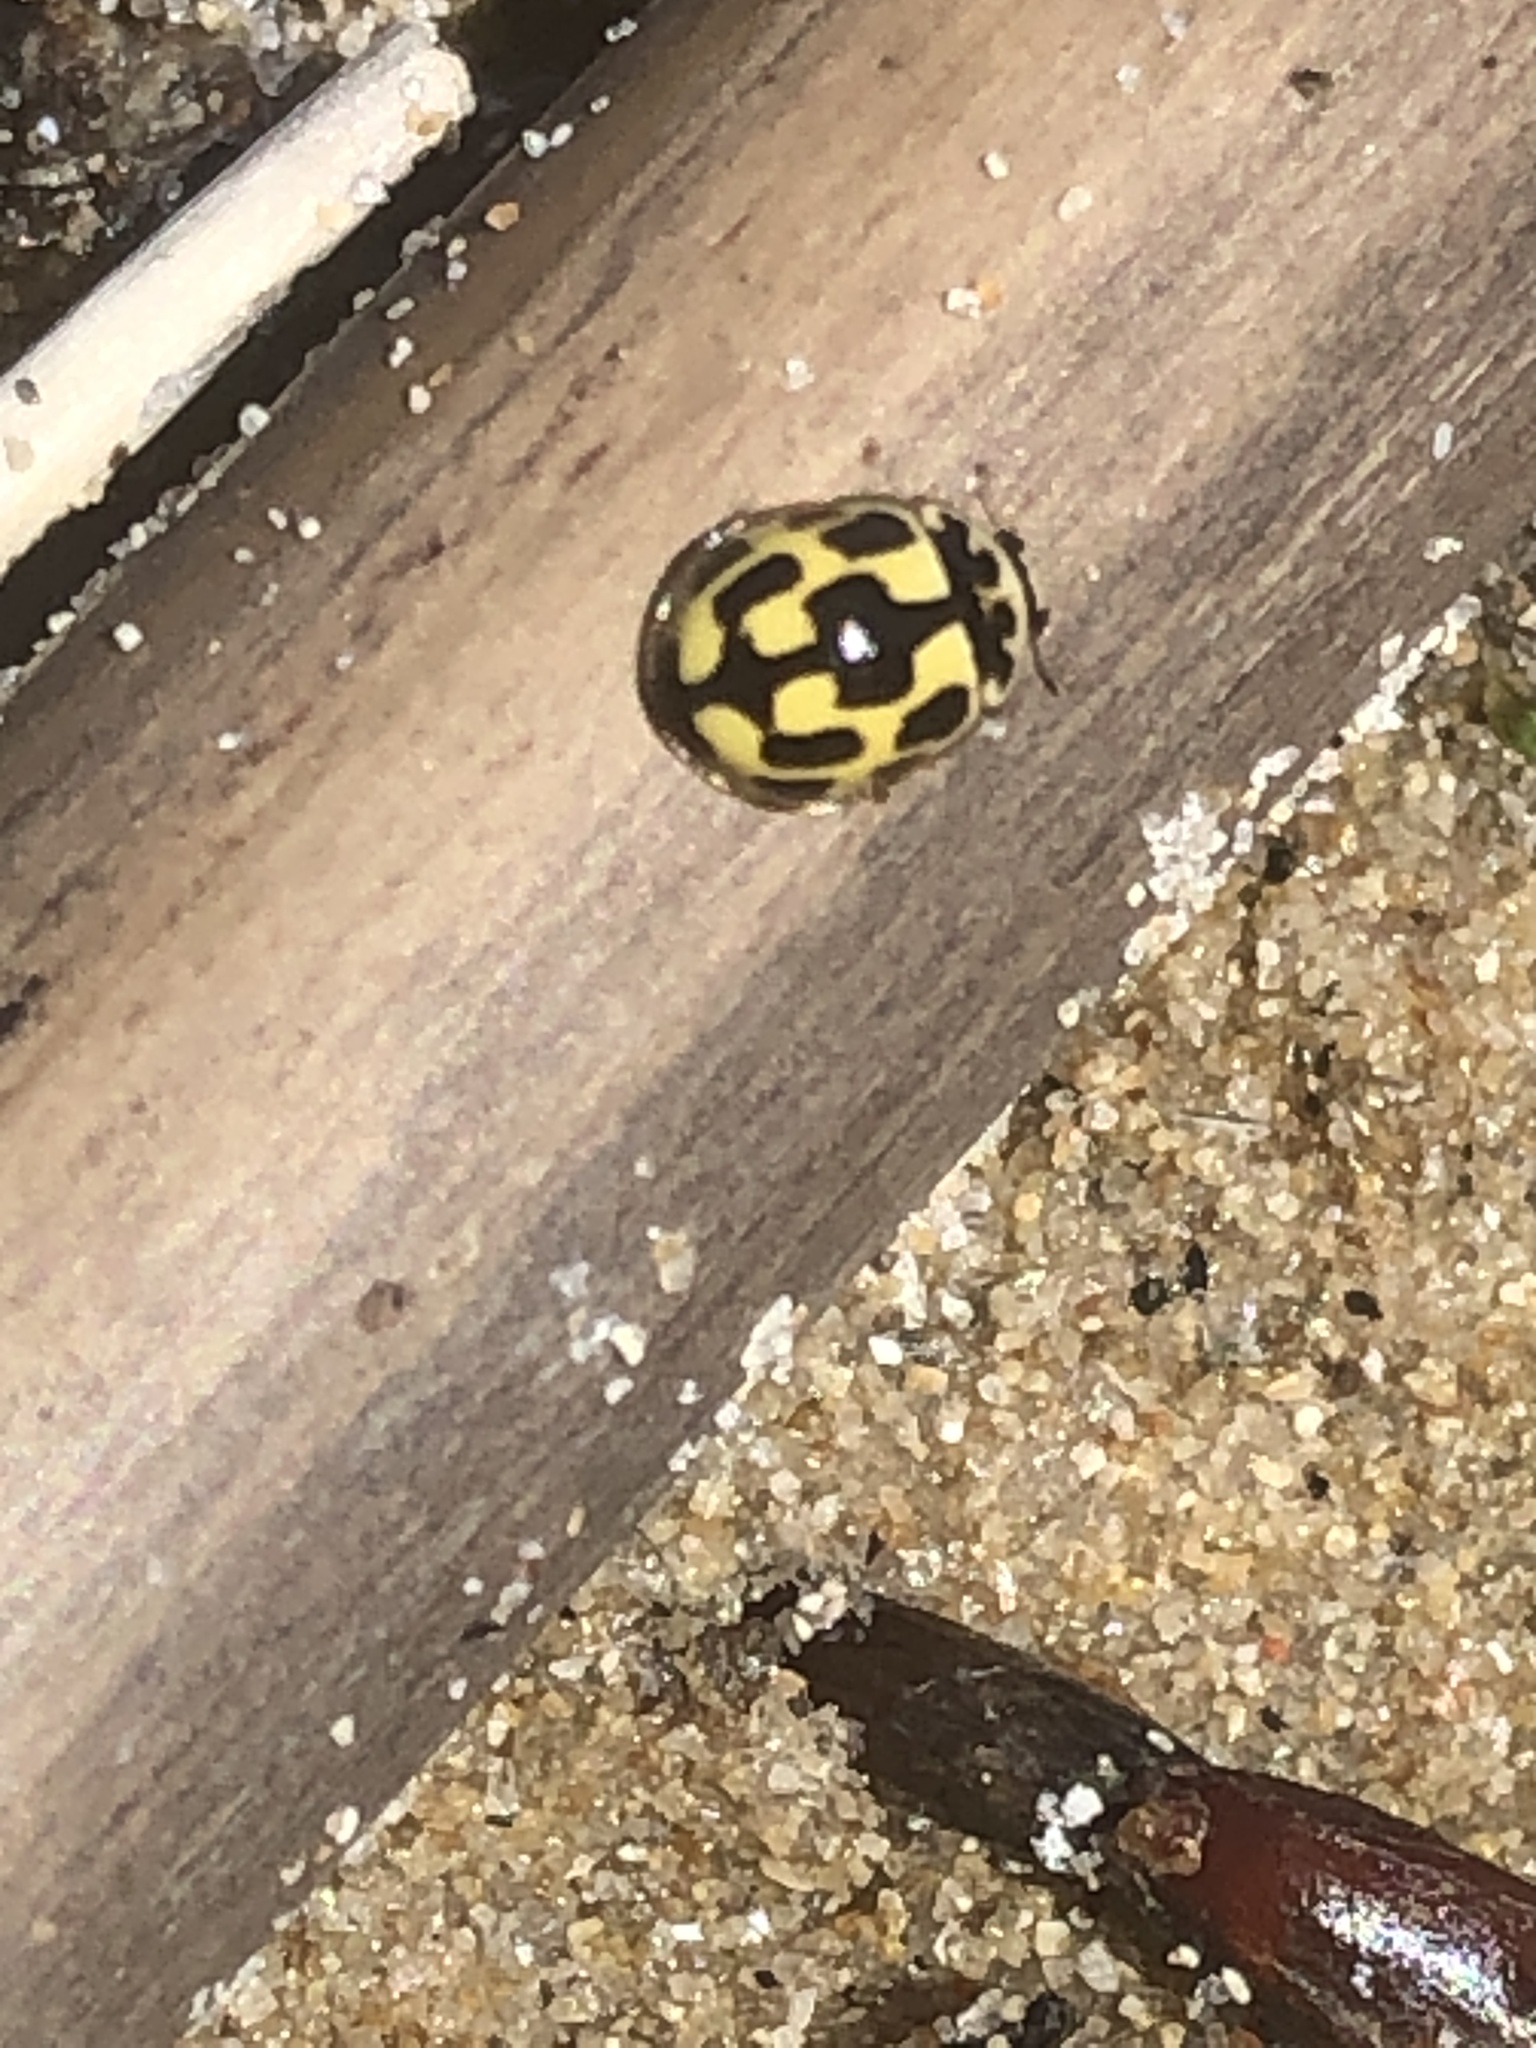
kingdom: Animalia
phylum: Arthropoda
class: Insecta
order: Coleoptera
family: Coccinellidae
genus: Propylaea
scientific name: Propylaea quatuordecimpunctata
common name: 14-spotted ladybird beetle
